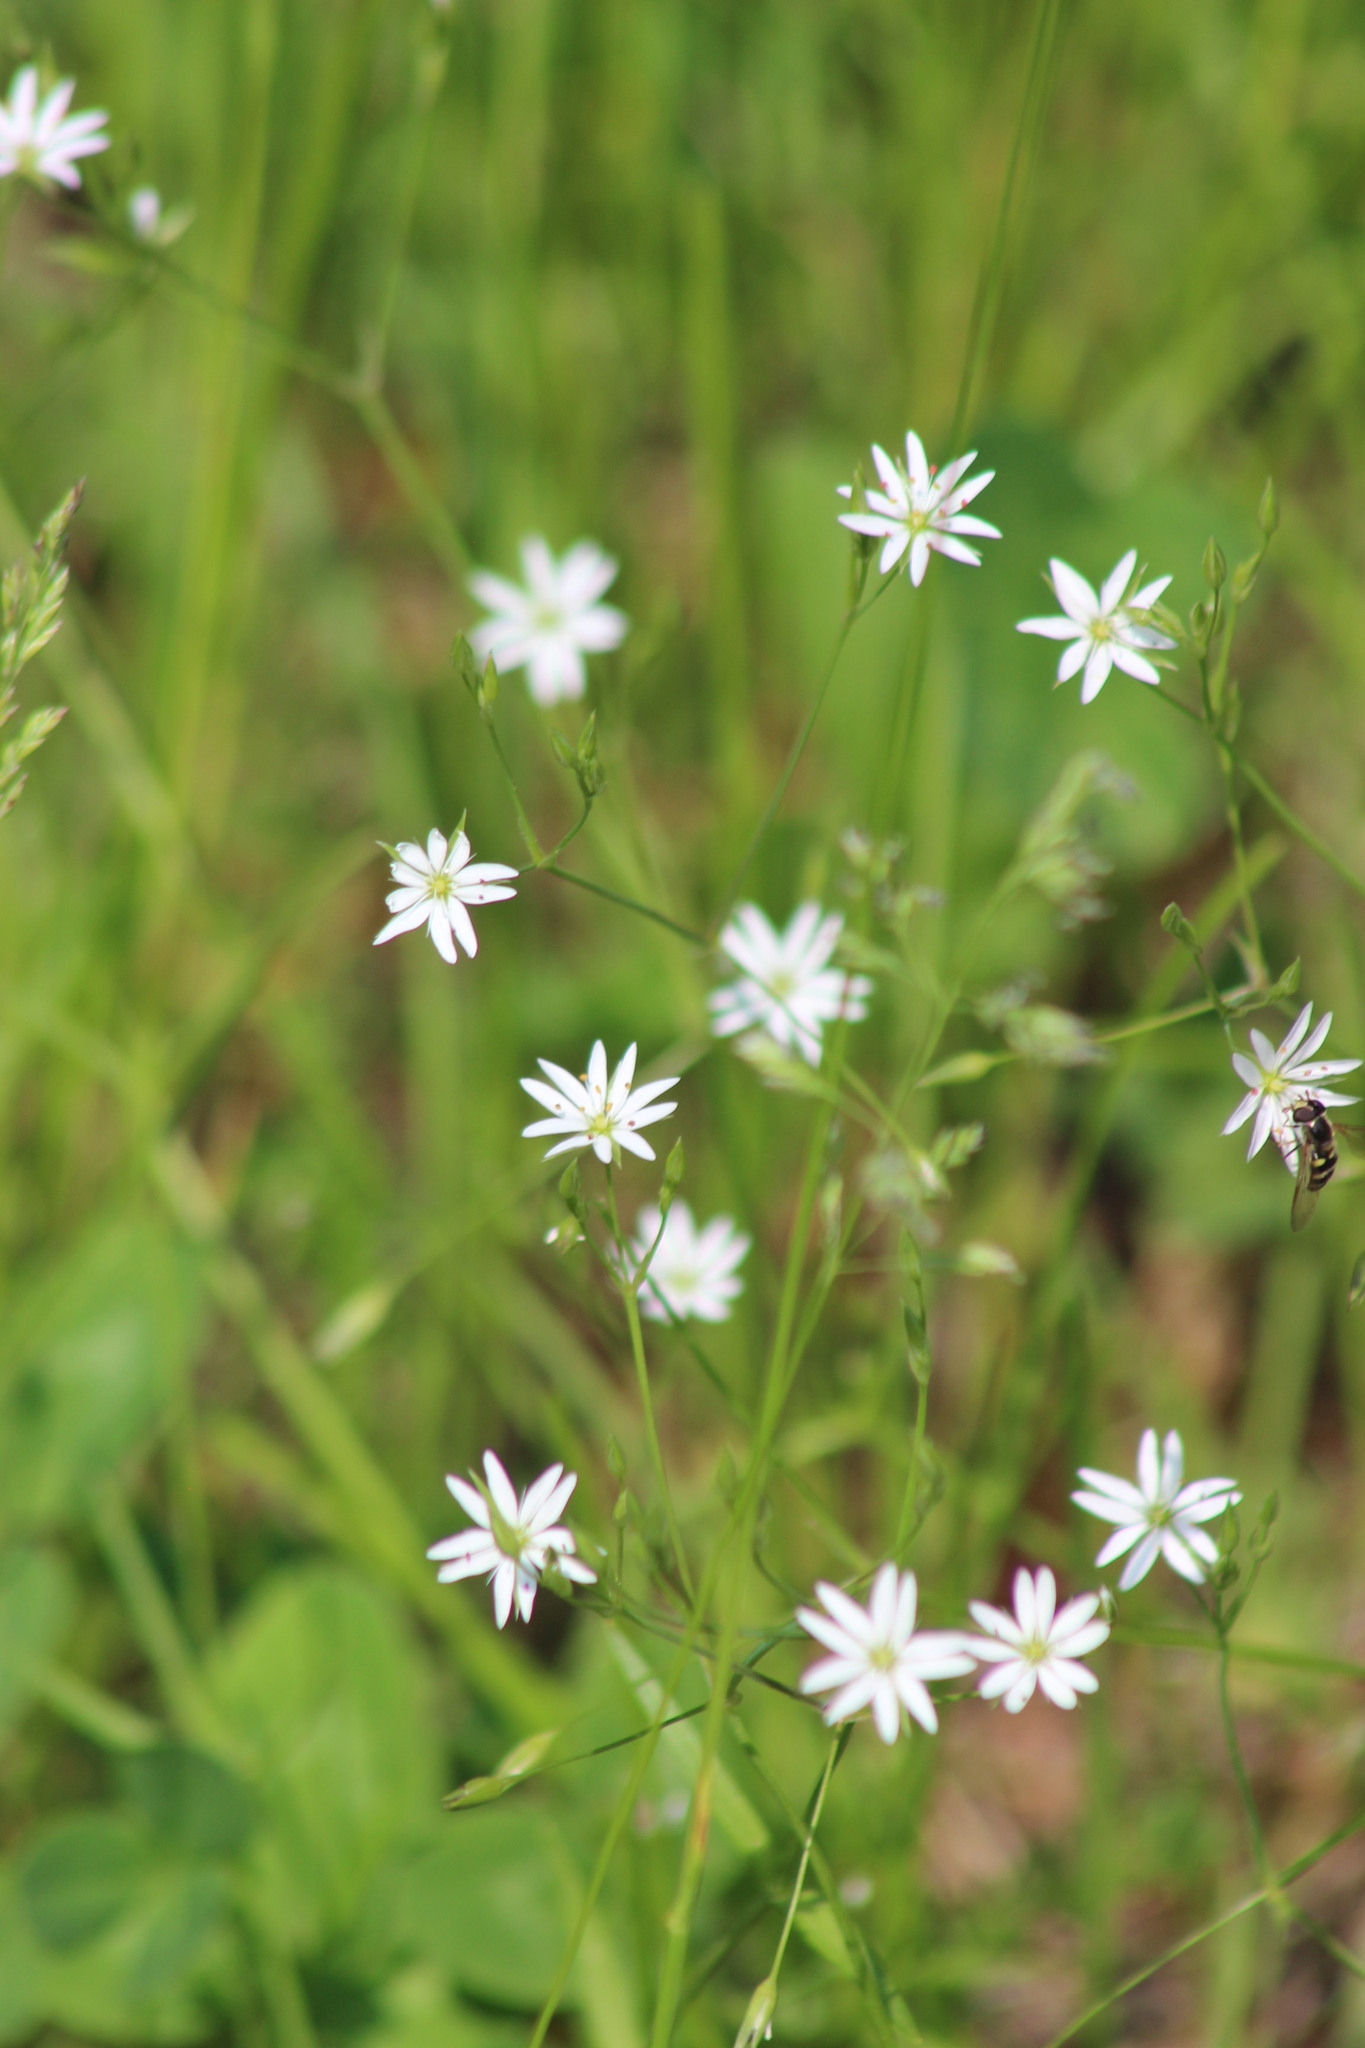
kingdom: Plantae
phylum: Tracheophyta
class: Magnoliopsida
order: Caryophyllales
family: Caryophyllaceae
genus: Stellaria
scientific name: Stellaria graminea
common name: Grass-like starwort
